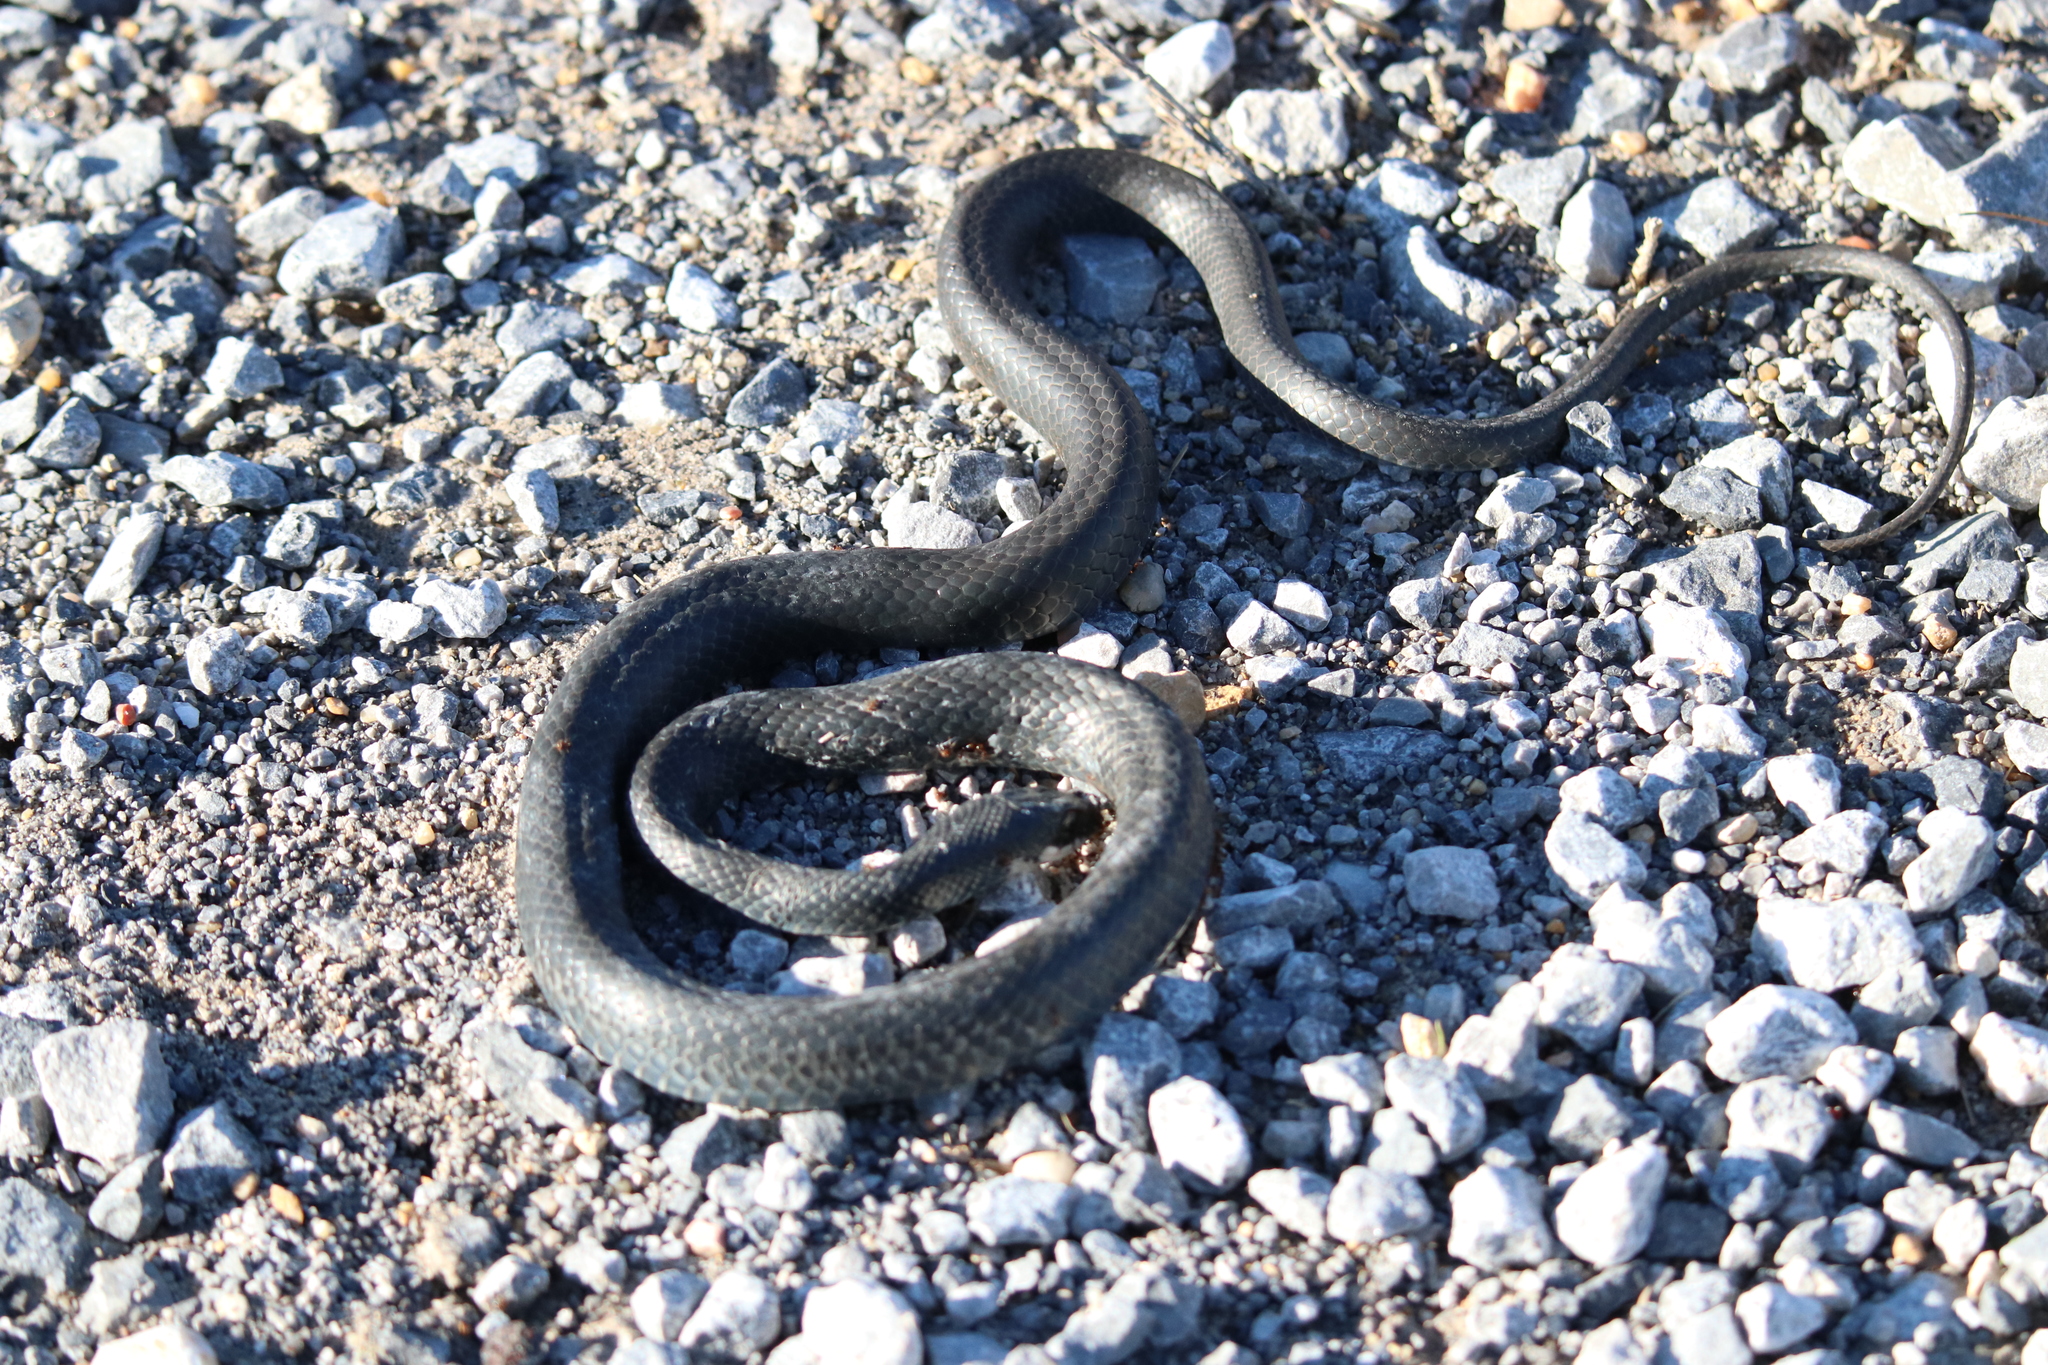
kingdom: Animalia
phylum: Chordata
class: Squamata
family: Colubridae
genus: Coluber
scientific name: Coluber constrictor
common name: Eastern racer
